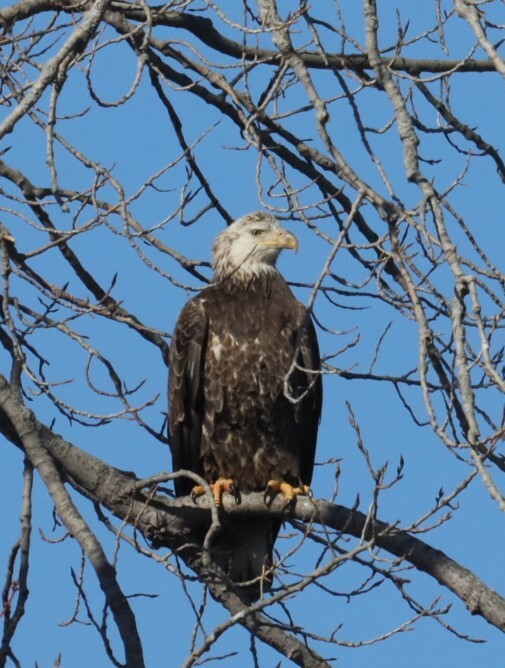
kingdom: Animalia
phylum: Chordata
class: Aves
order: Accipitriformes
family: Accipitridae
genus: Haliaeetus
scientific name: Haliaeetus leucocephalus
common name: Bald eagle
